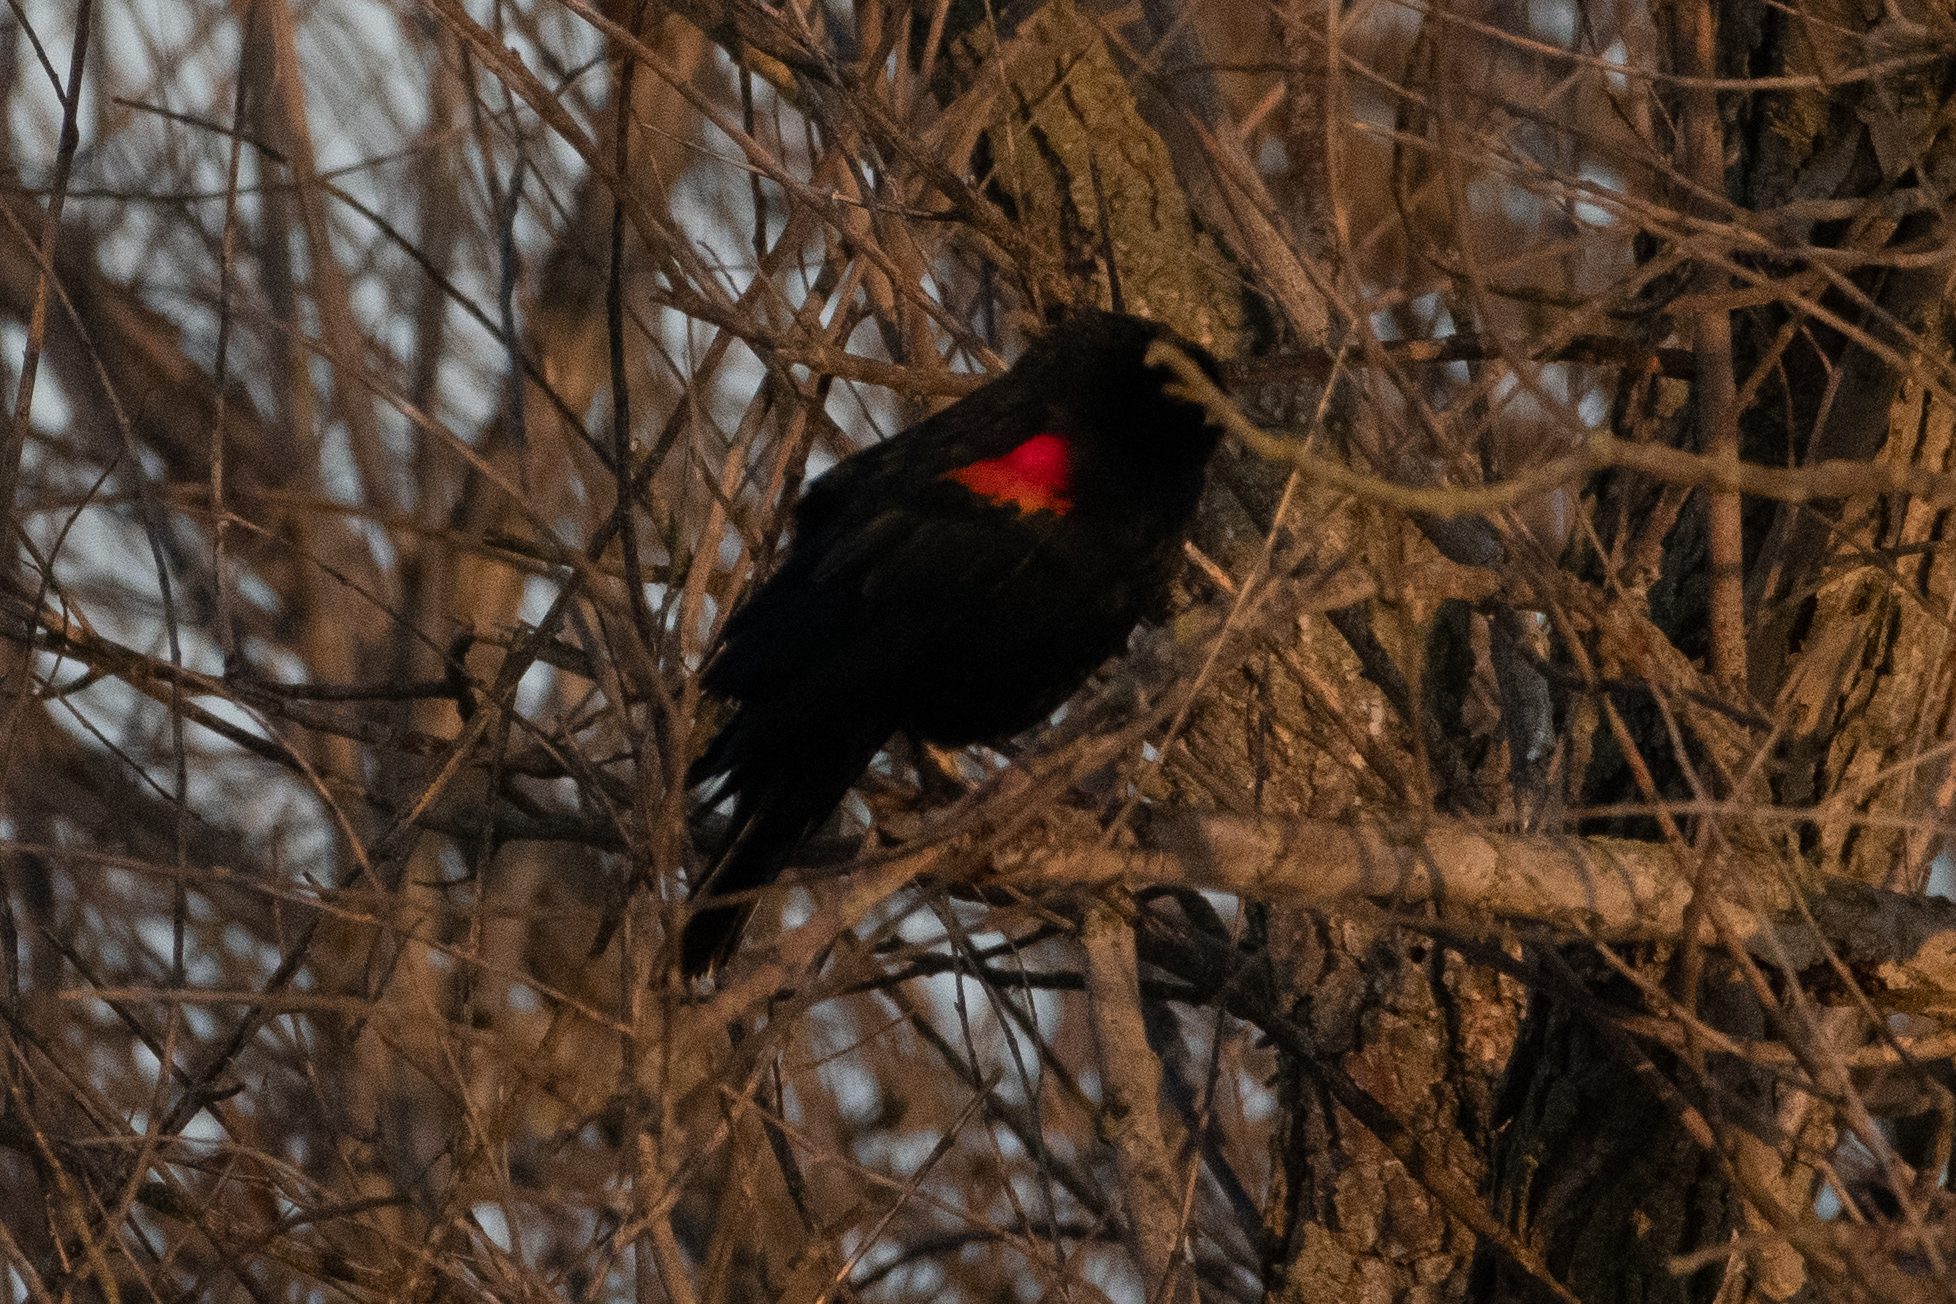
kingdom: Animalia
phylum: Chordata
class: Aves
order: Passeriformes
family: Icteridae
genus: Agelaius
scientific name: Agelaius phoeniceus
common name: Red-winged blackbird
